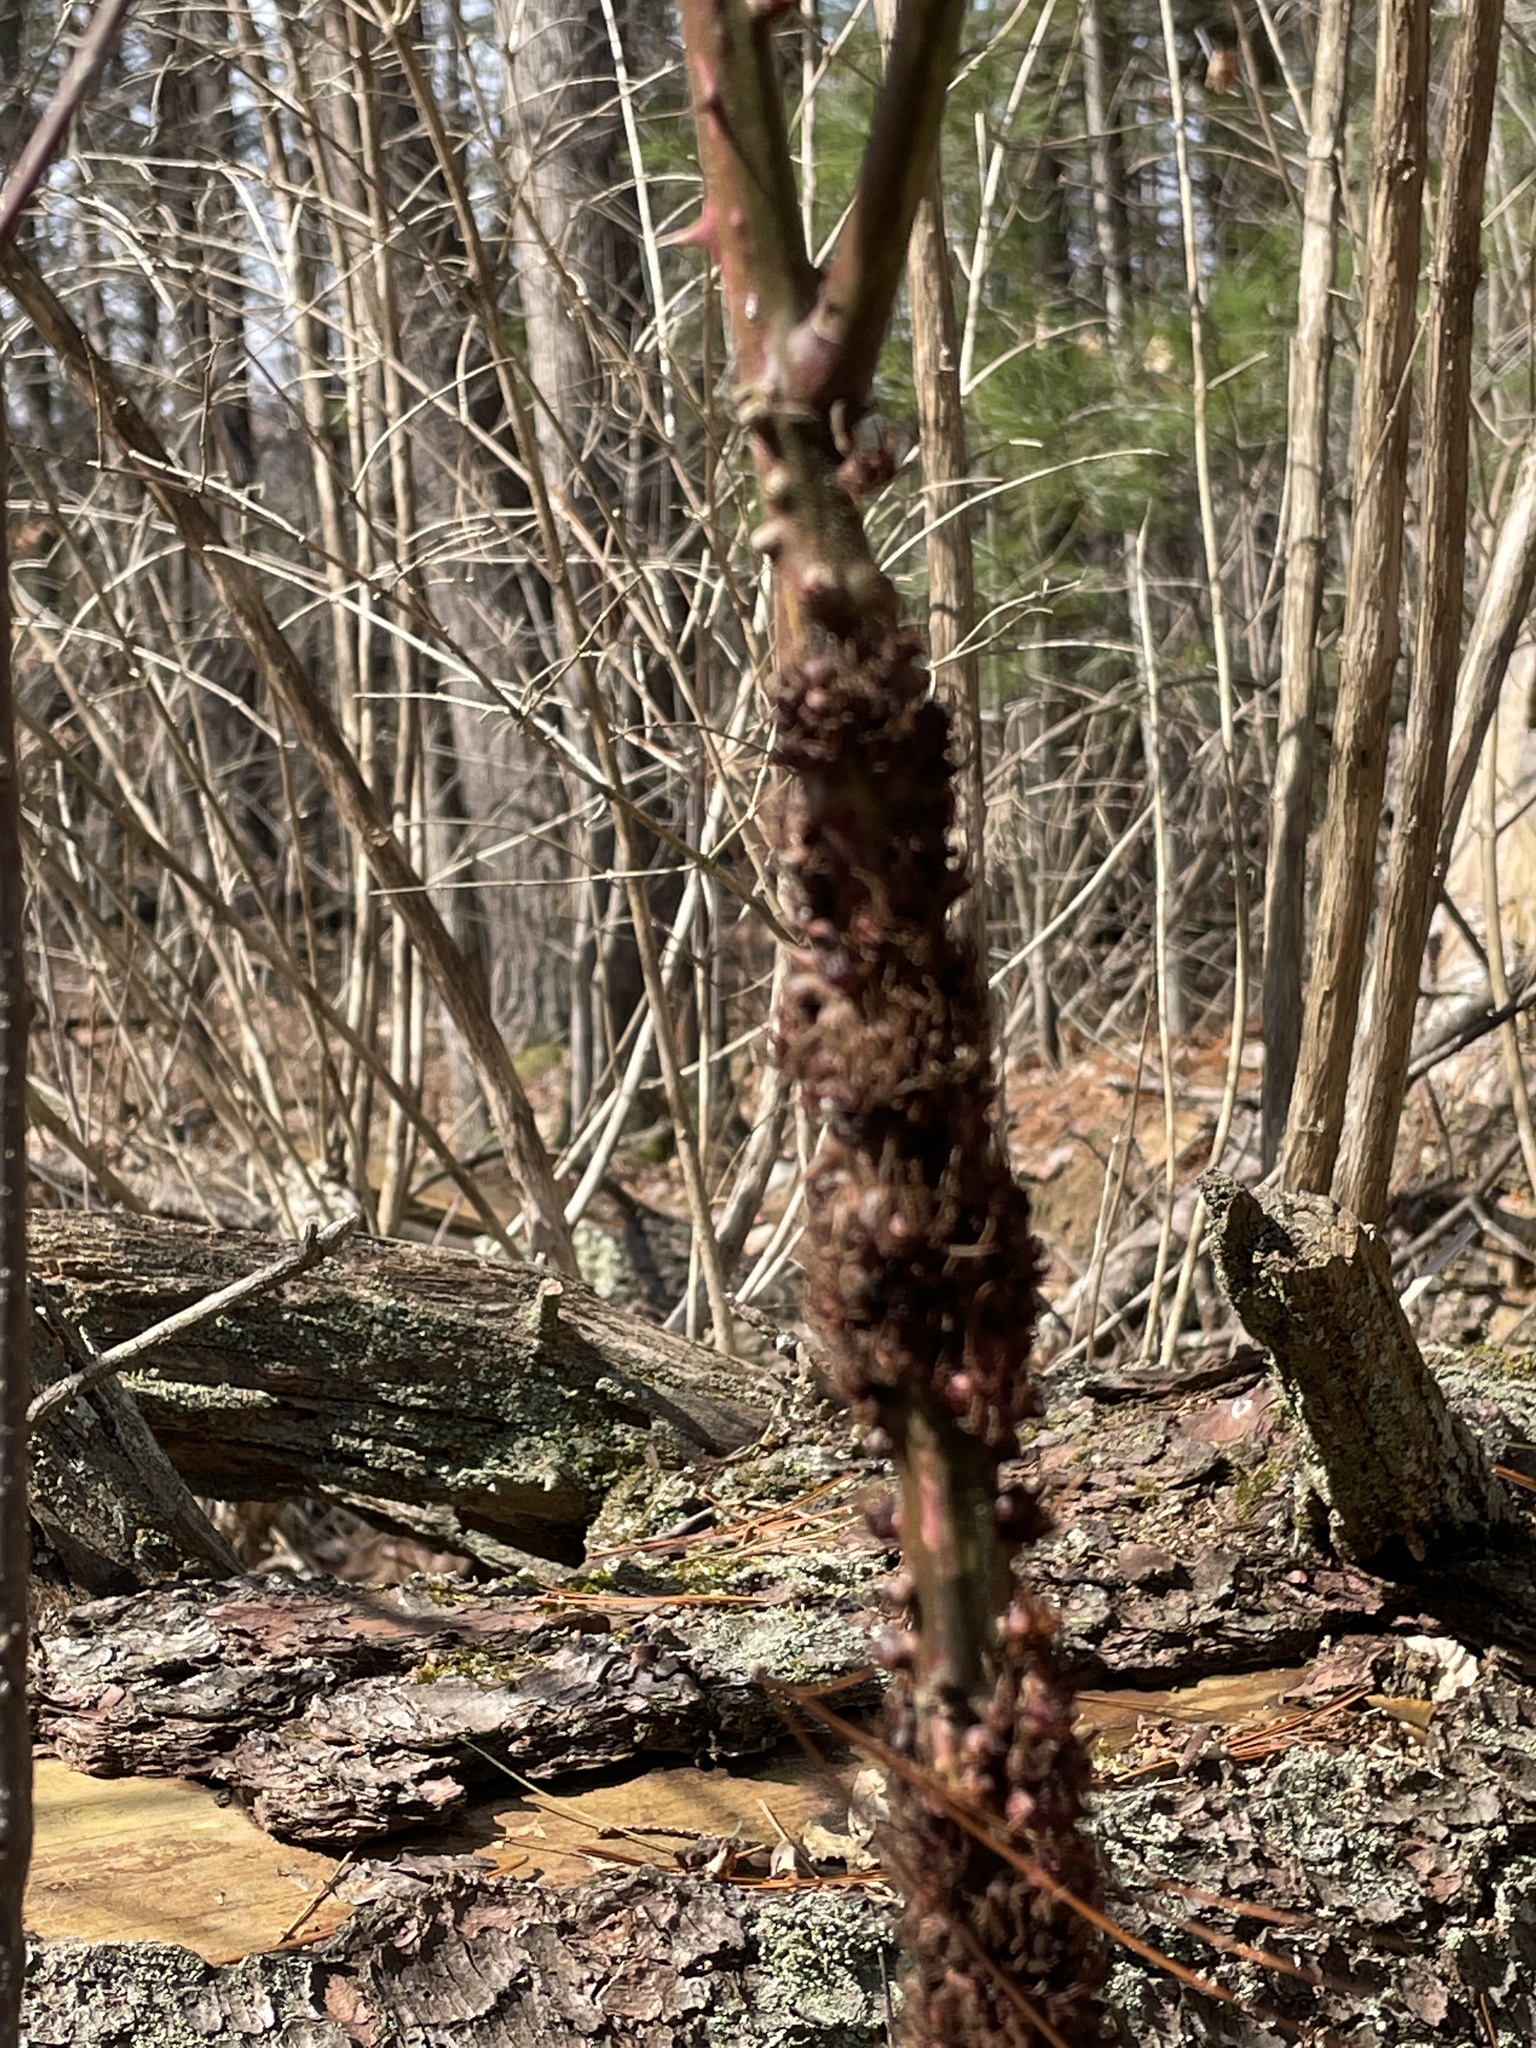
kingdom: Animalia
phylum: Arthropoda
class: Insecta
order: Hymenoptera
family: Cynipidae
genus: Diastrophus
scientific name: Diastrophus
